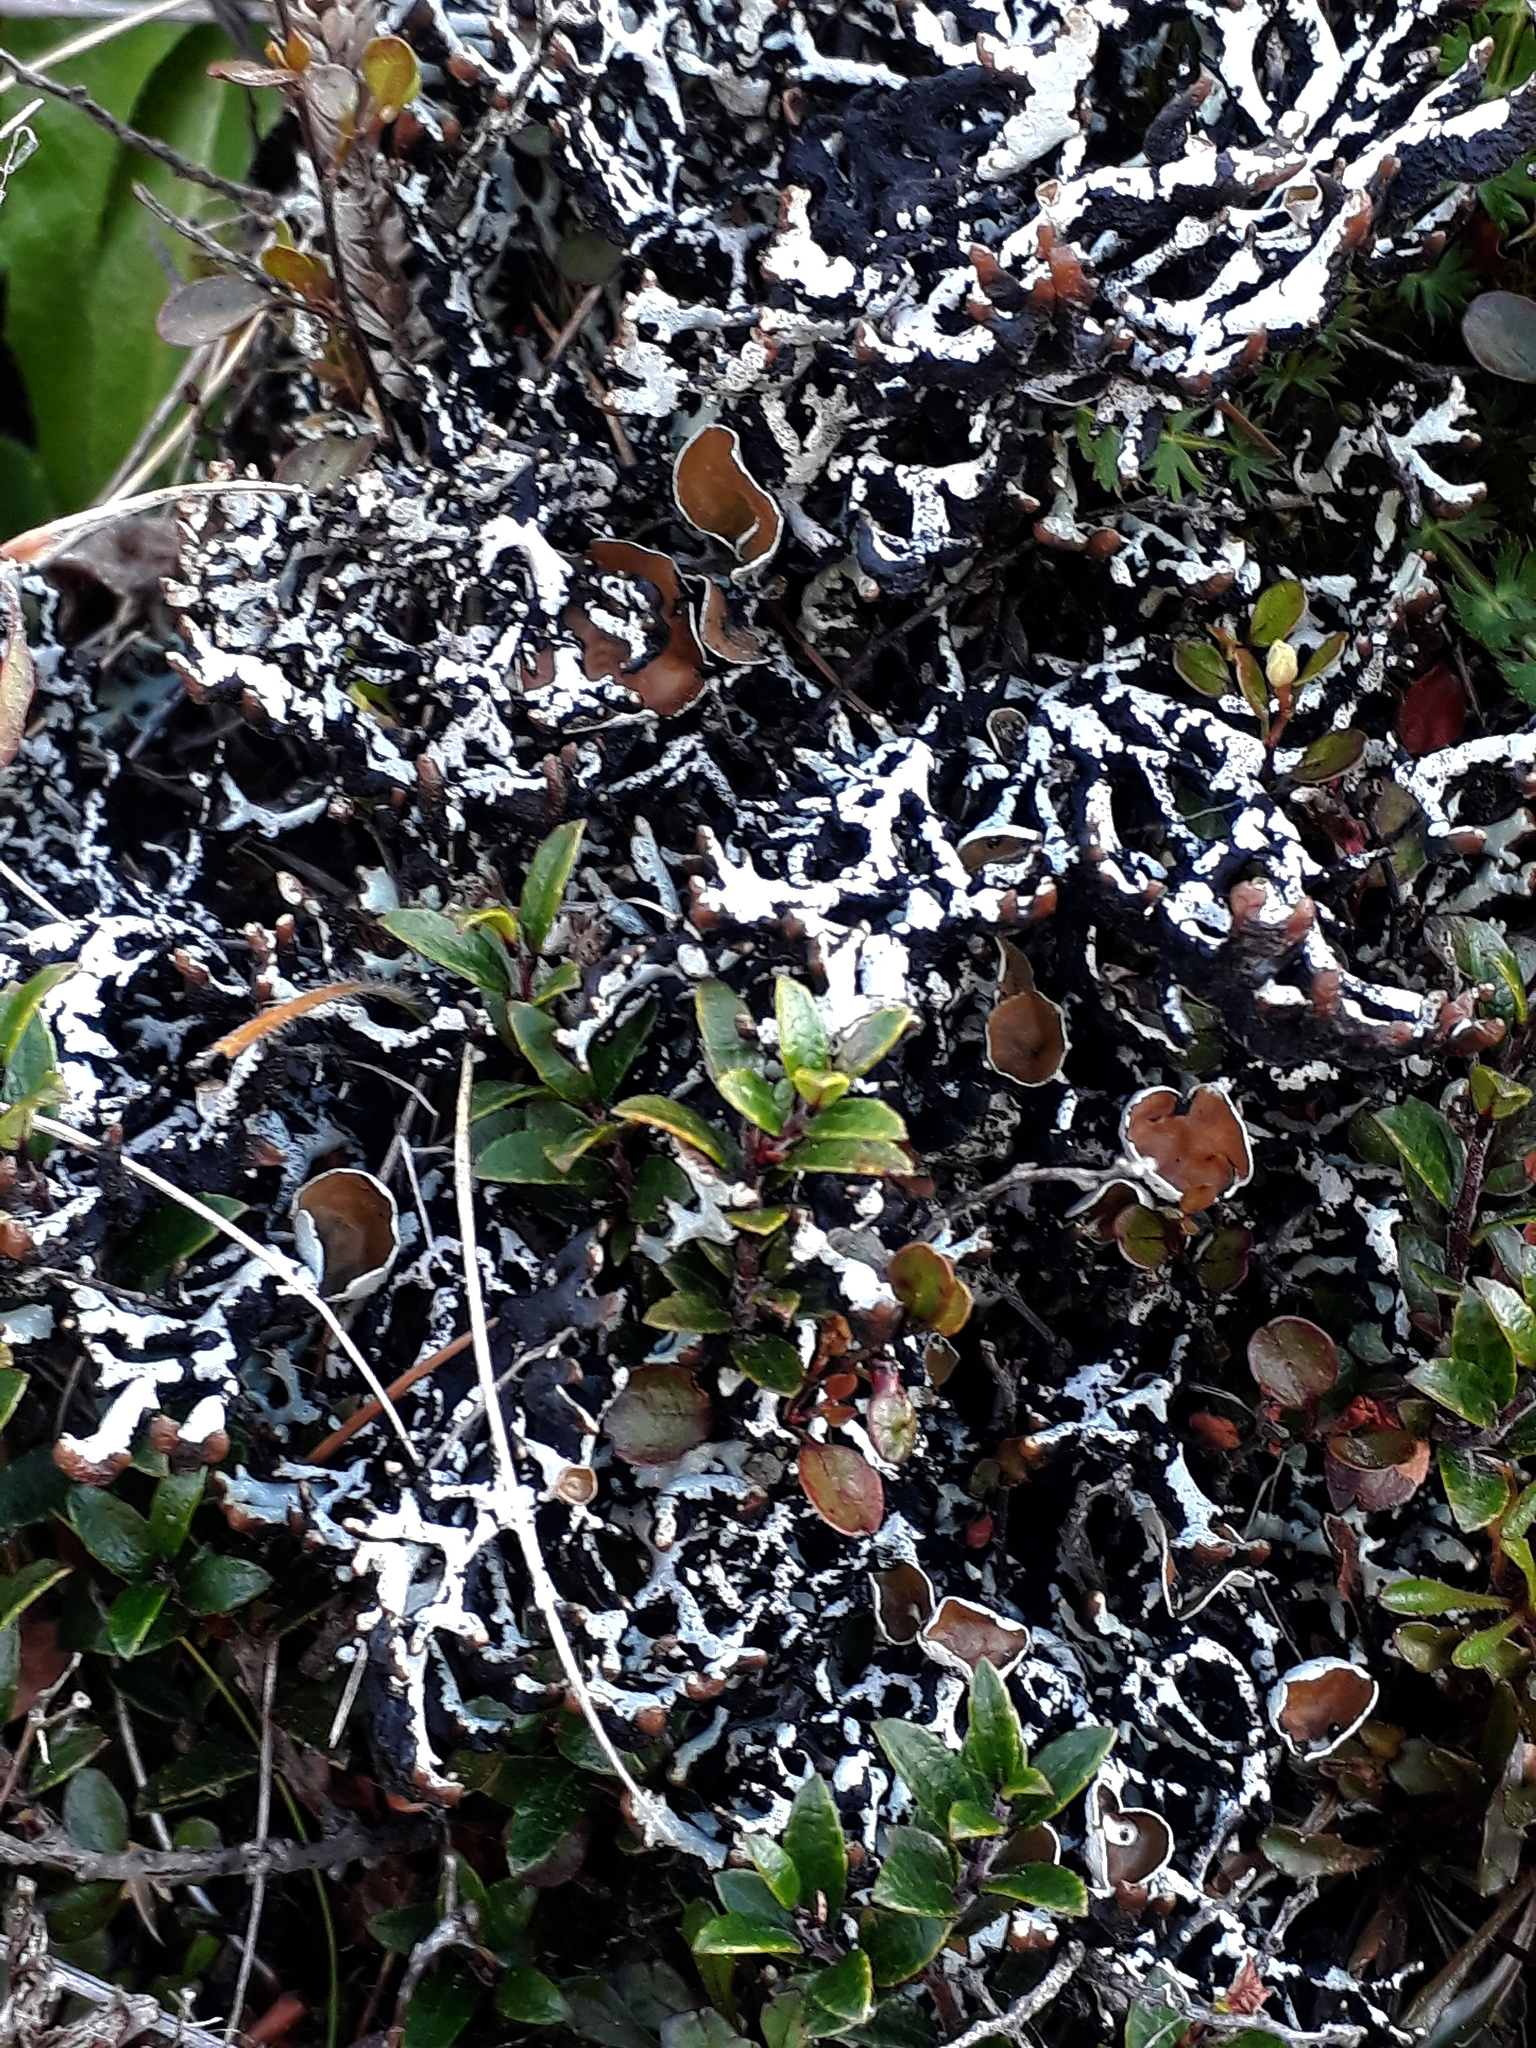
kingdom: Fungi
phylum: Ascomycota
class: Lecanoromycetes
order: Lecanorales
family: Parmeliaceae
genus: Hypogymnia
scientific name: Hypogymnia lugubris
